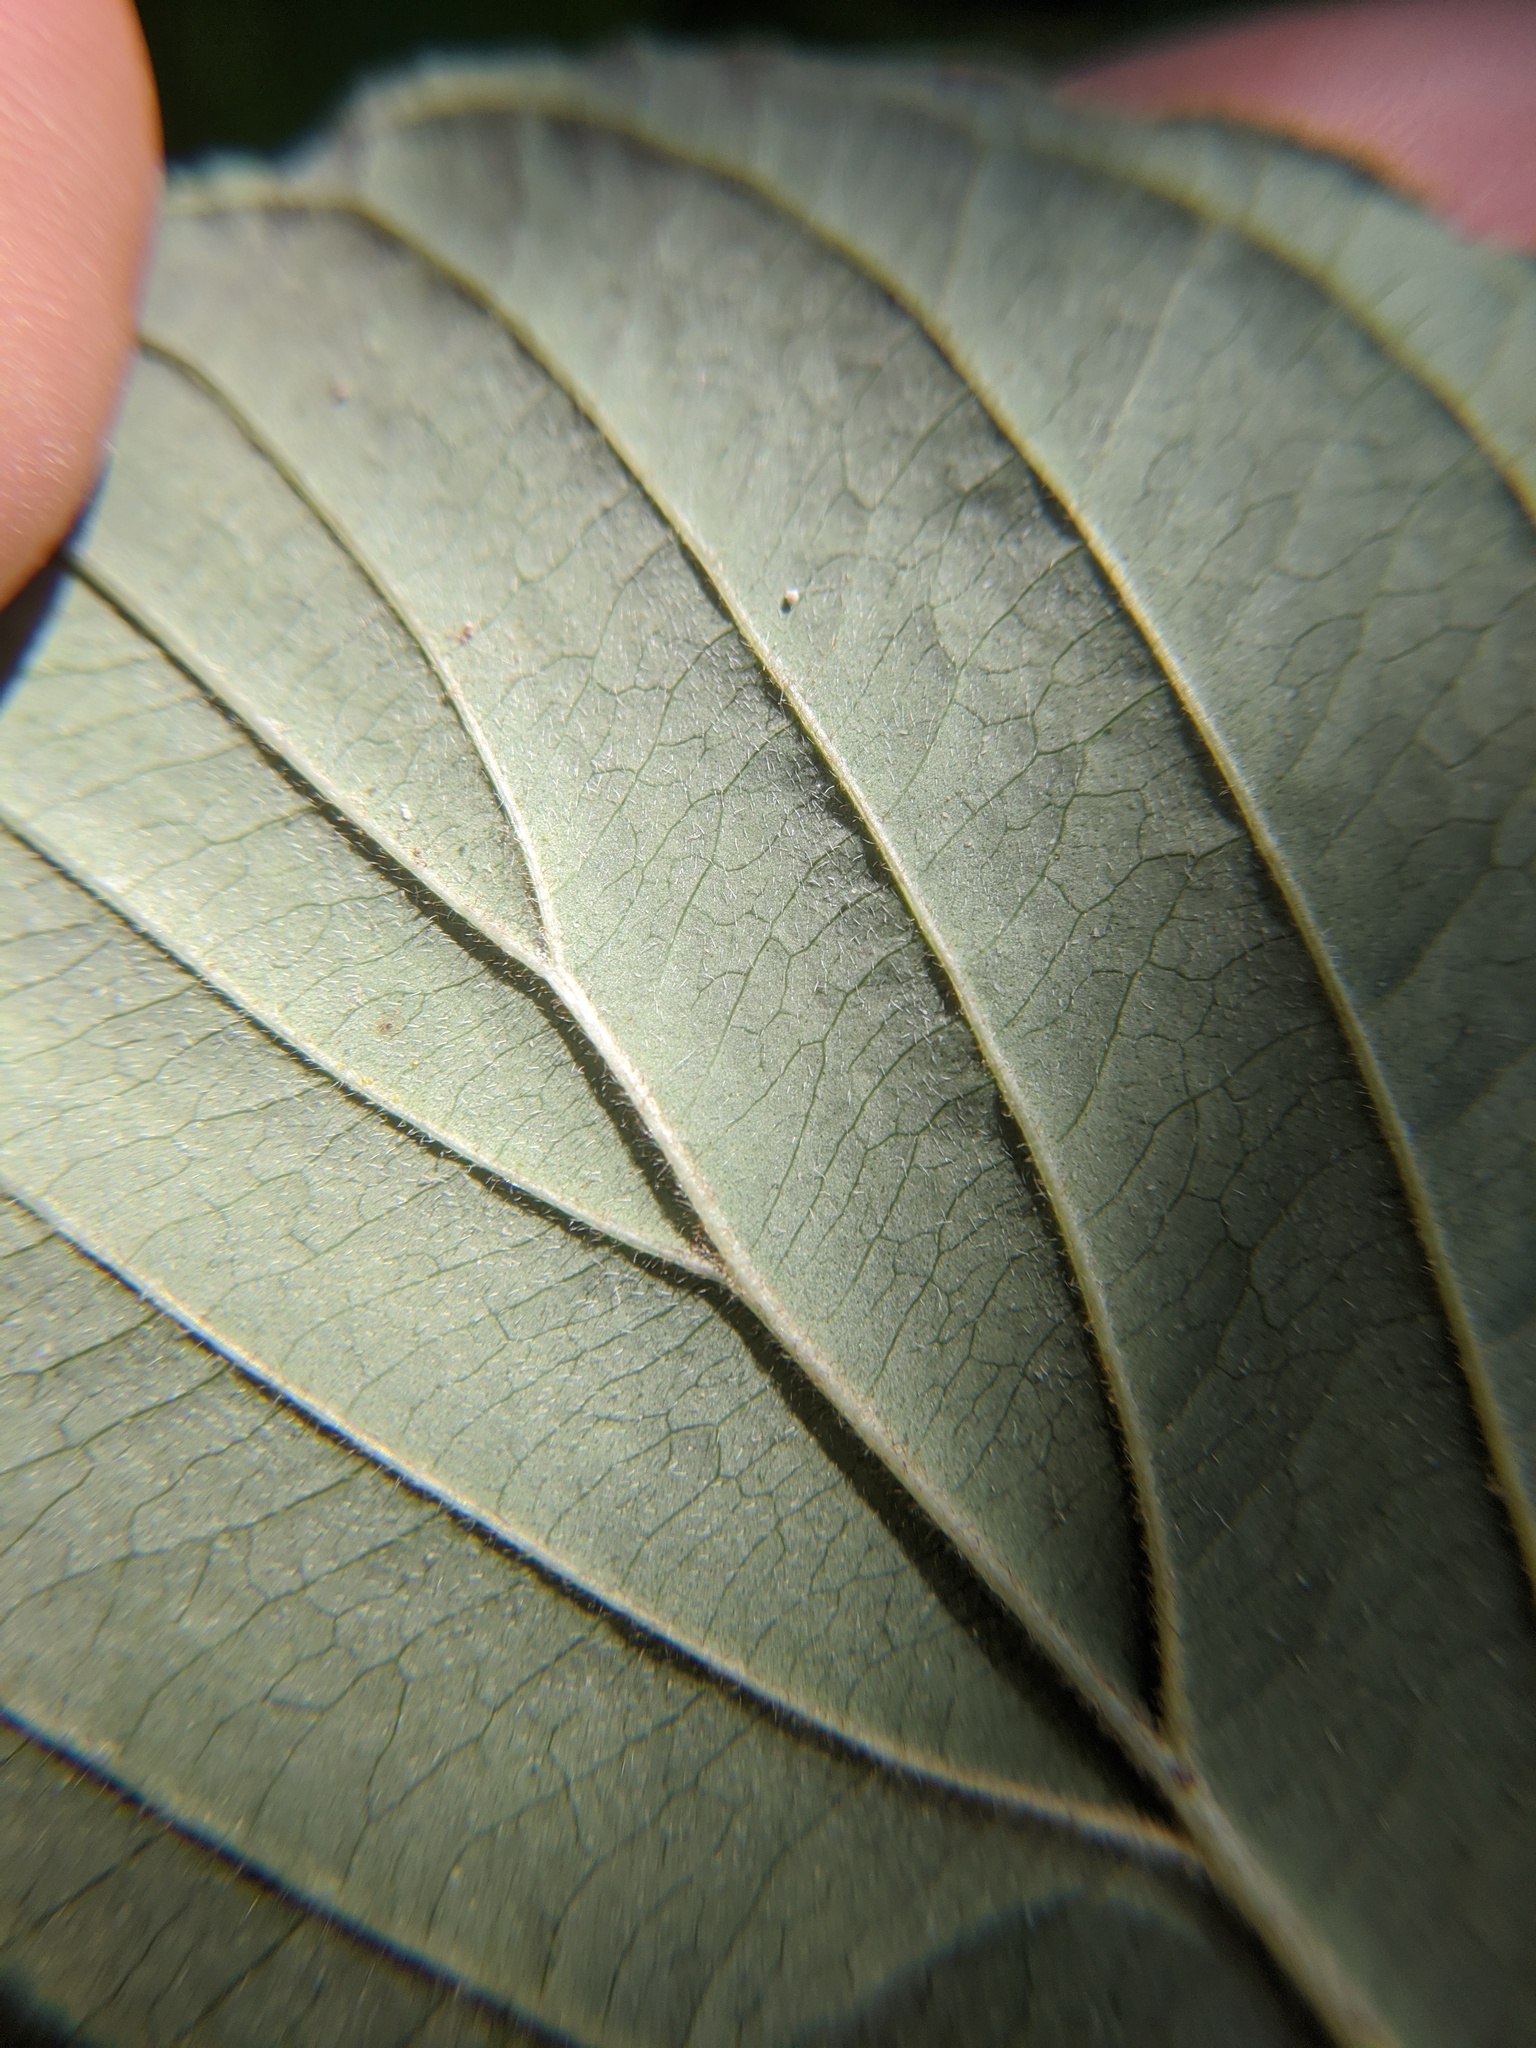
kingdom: Plantae
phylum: Tracheophyta
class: Magnoliopsida
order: Cornales
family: Cornaceae
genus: Cornus
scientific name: Cornus alternifolia
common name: Pagoda dogwood
